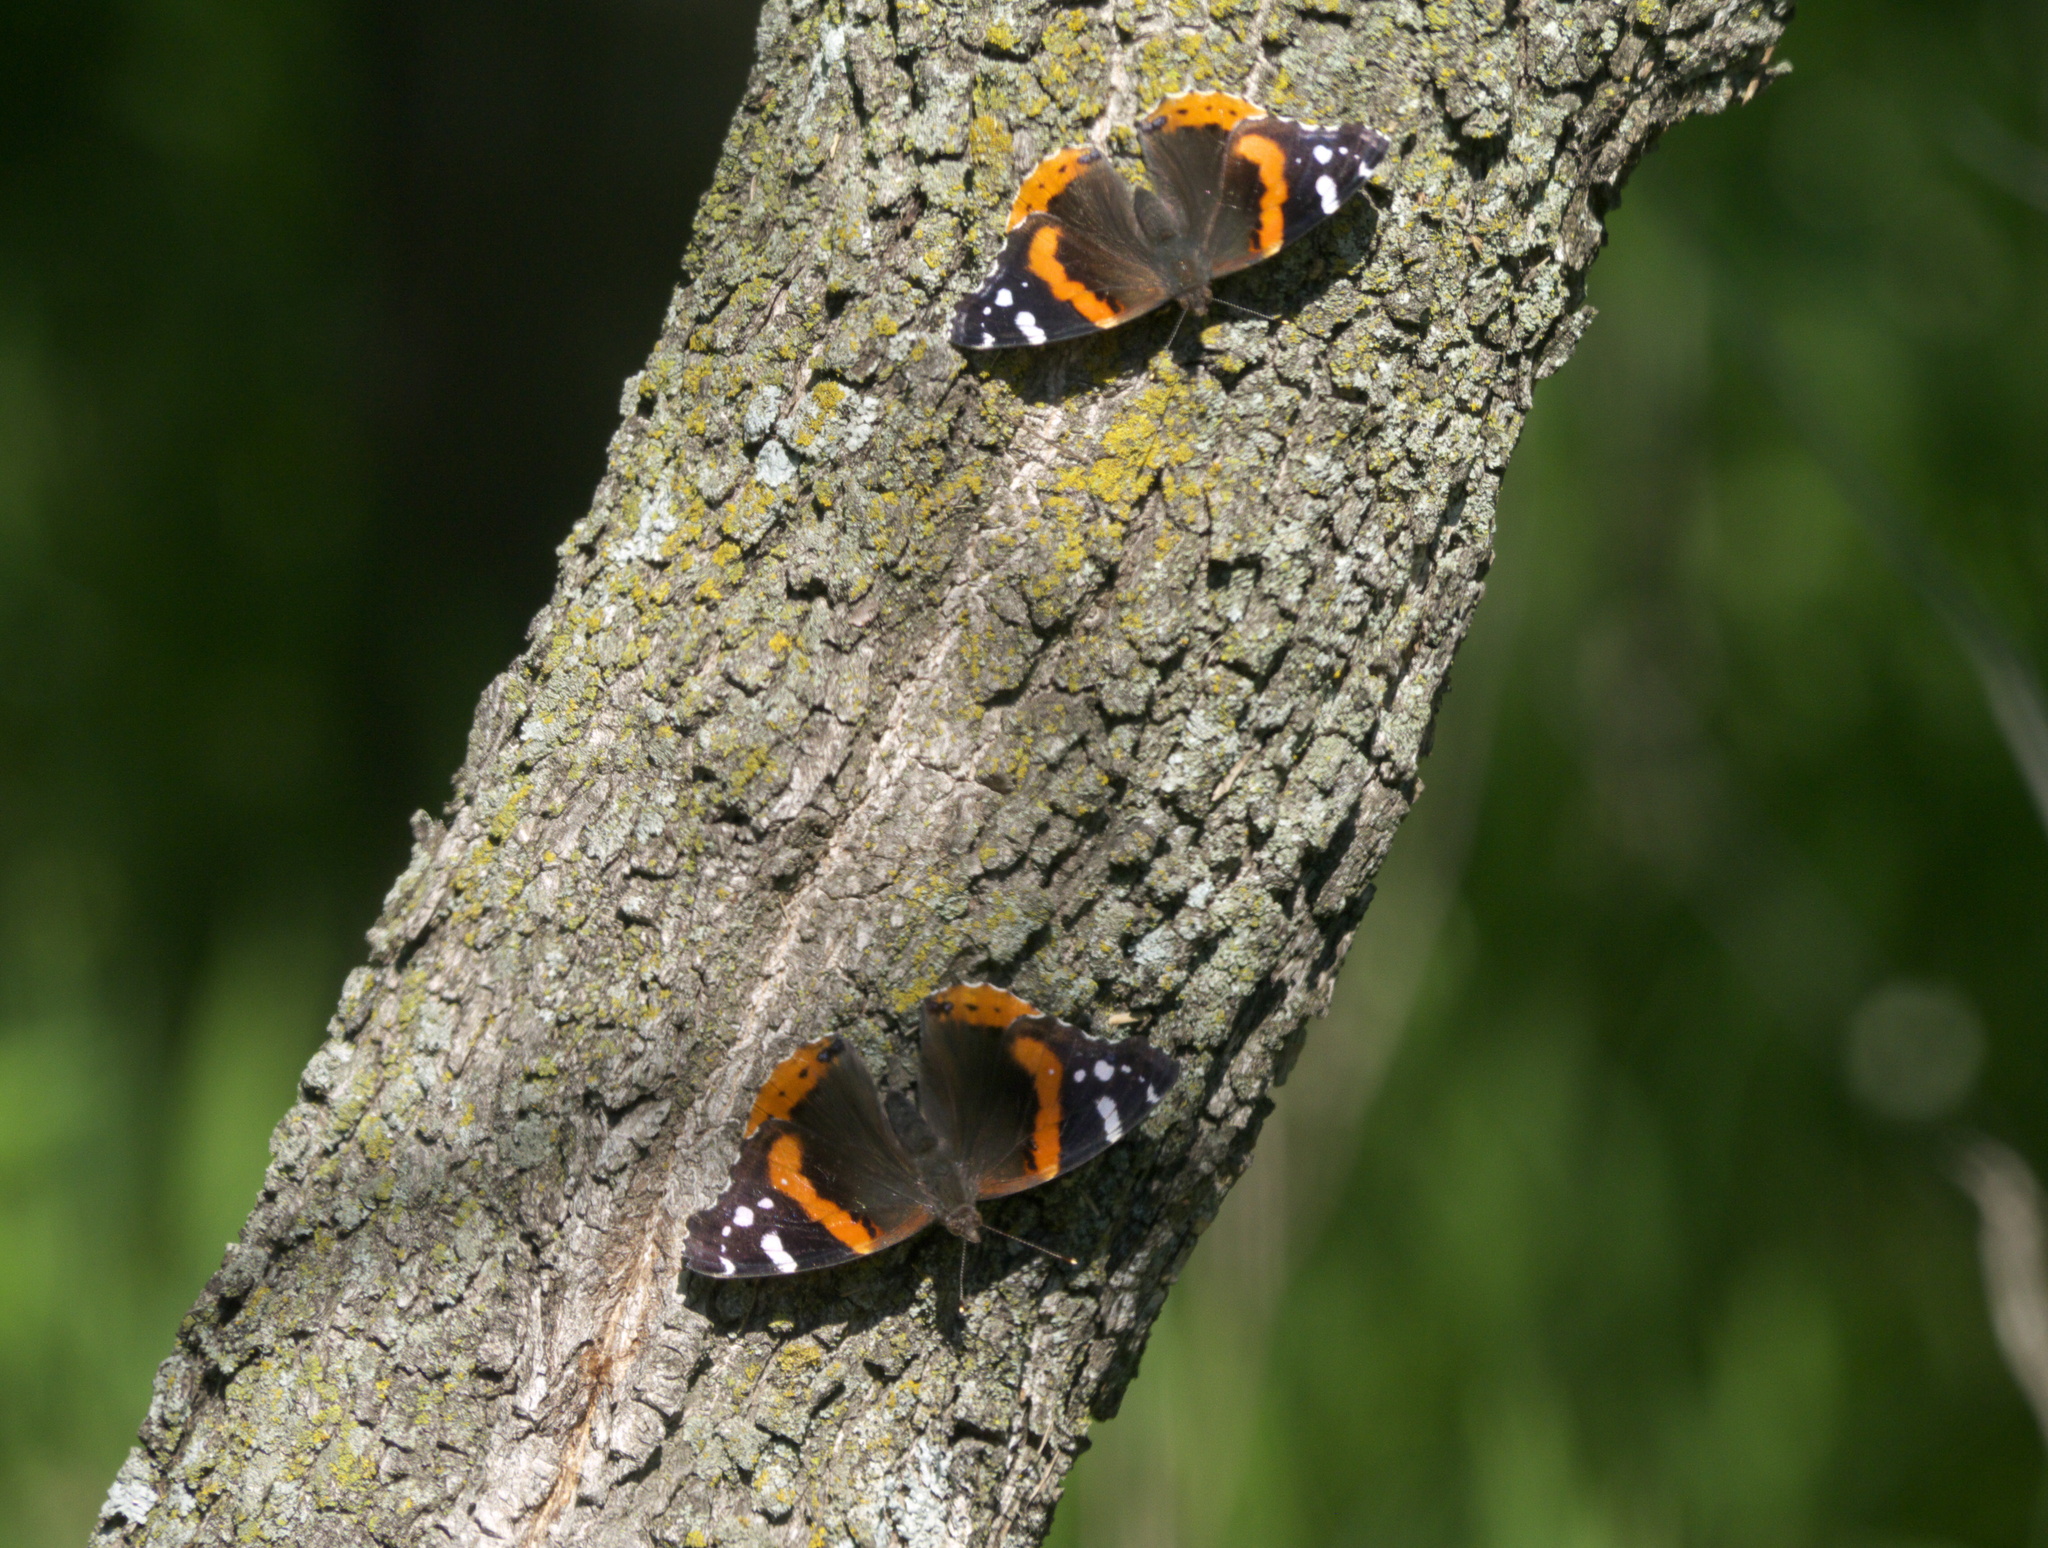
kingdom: Animalia
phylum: Arthropoda
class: Insecta
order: Lepidoptera
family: Nymphalidae
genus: Vanessa
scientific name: Vanessa atalanta
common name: Red admiral
